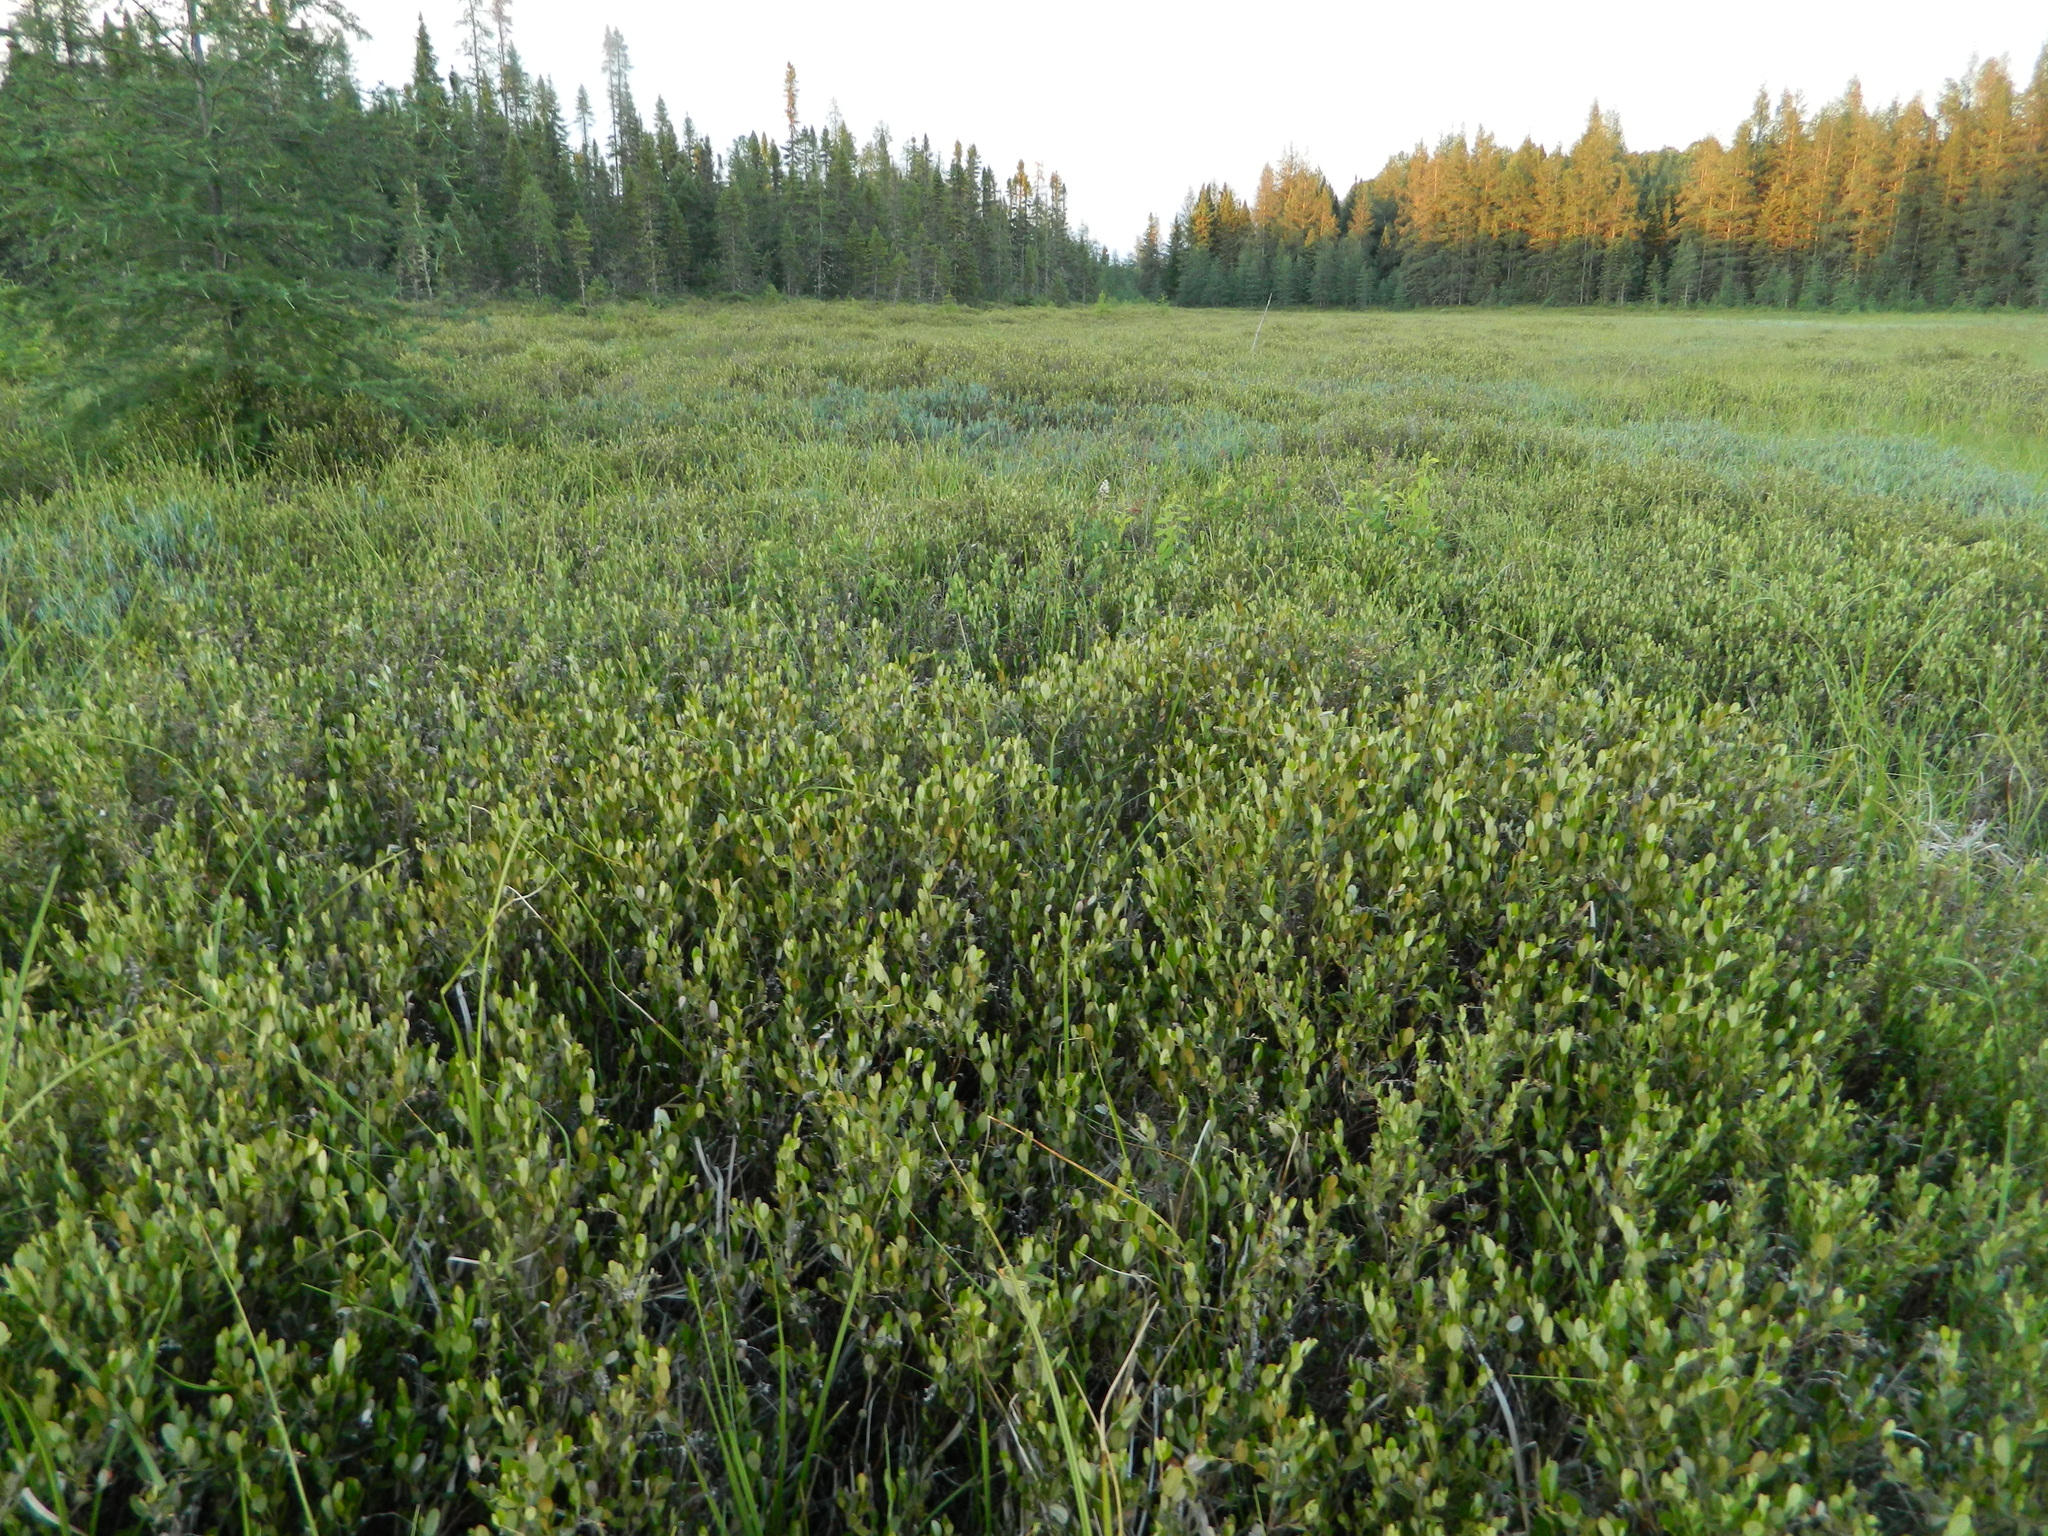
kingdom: Plantae
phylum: Tracheophyta
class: Magnoliopsida
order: Ericales
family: Ericaceae
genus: Chamaedaphne
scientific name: Chamaedaphne calyculata
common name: Leatherleaf
